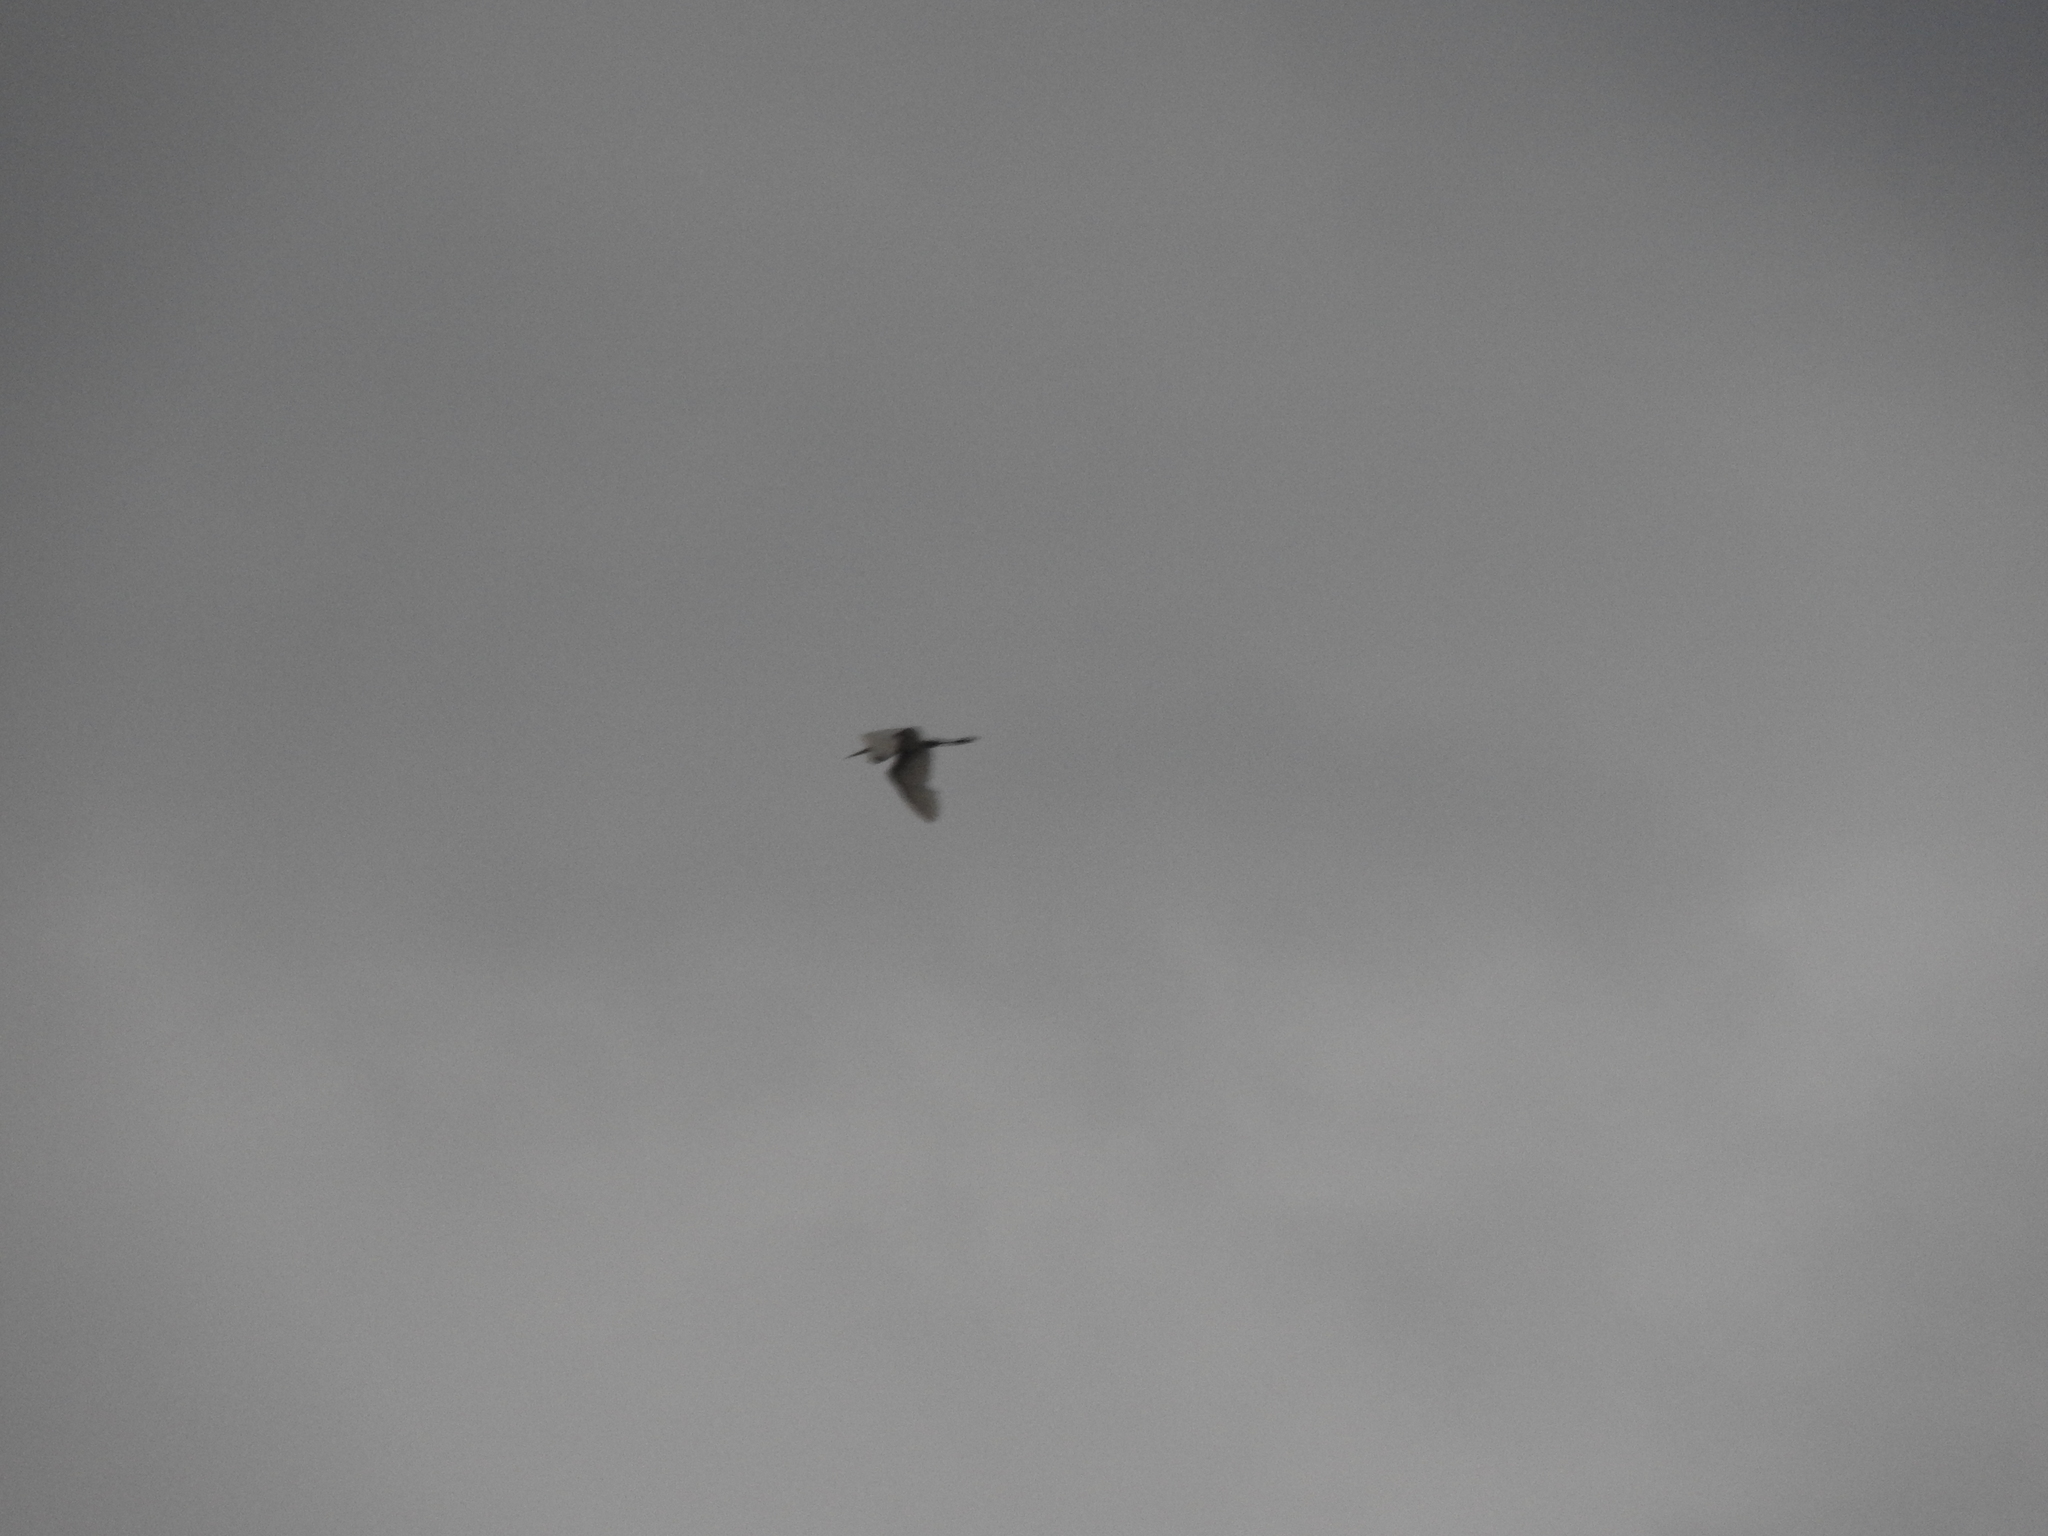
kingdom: Animalia
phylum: Chordata
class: Aves
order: Pelecaniformes
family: Ardeidae
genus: Bubulcus
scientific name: Bubulcus ibis
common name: Cattle egret
